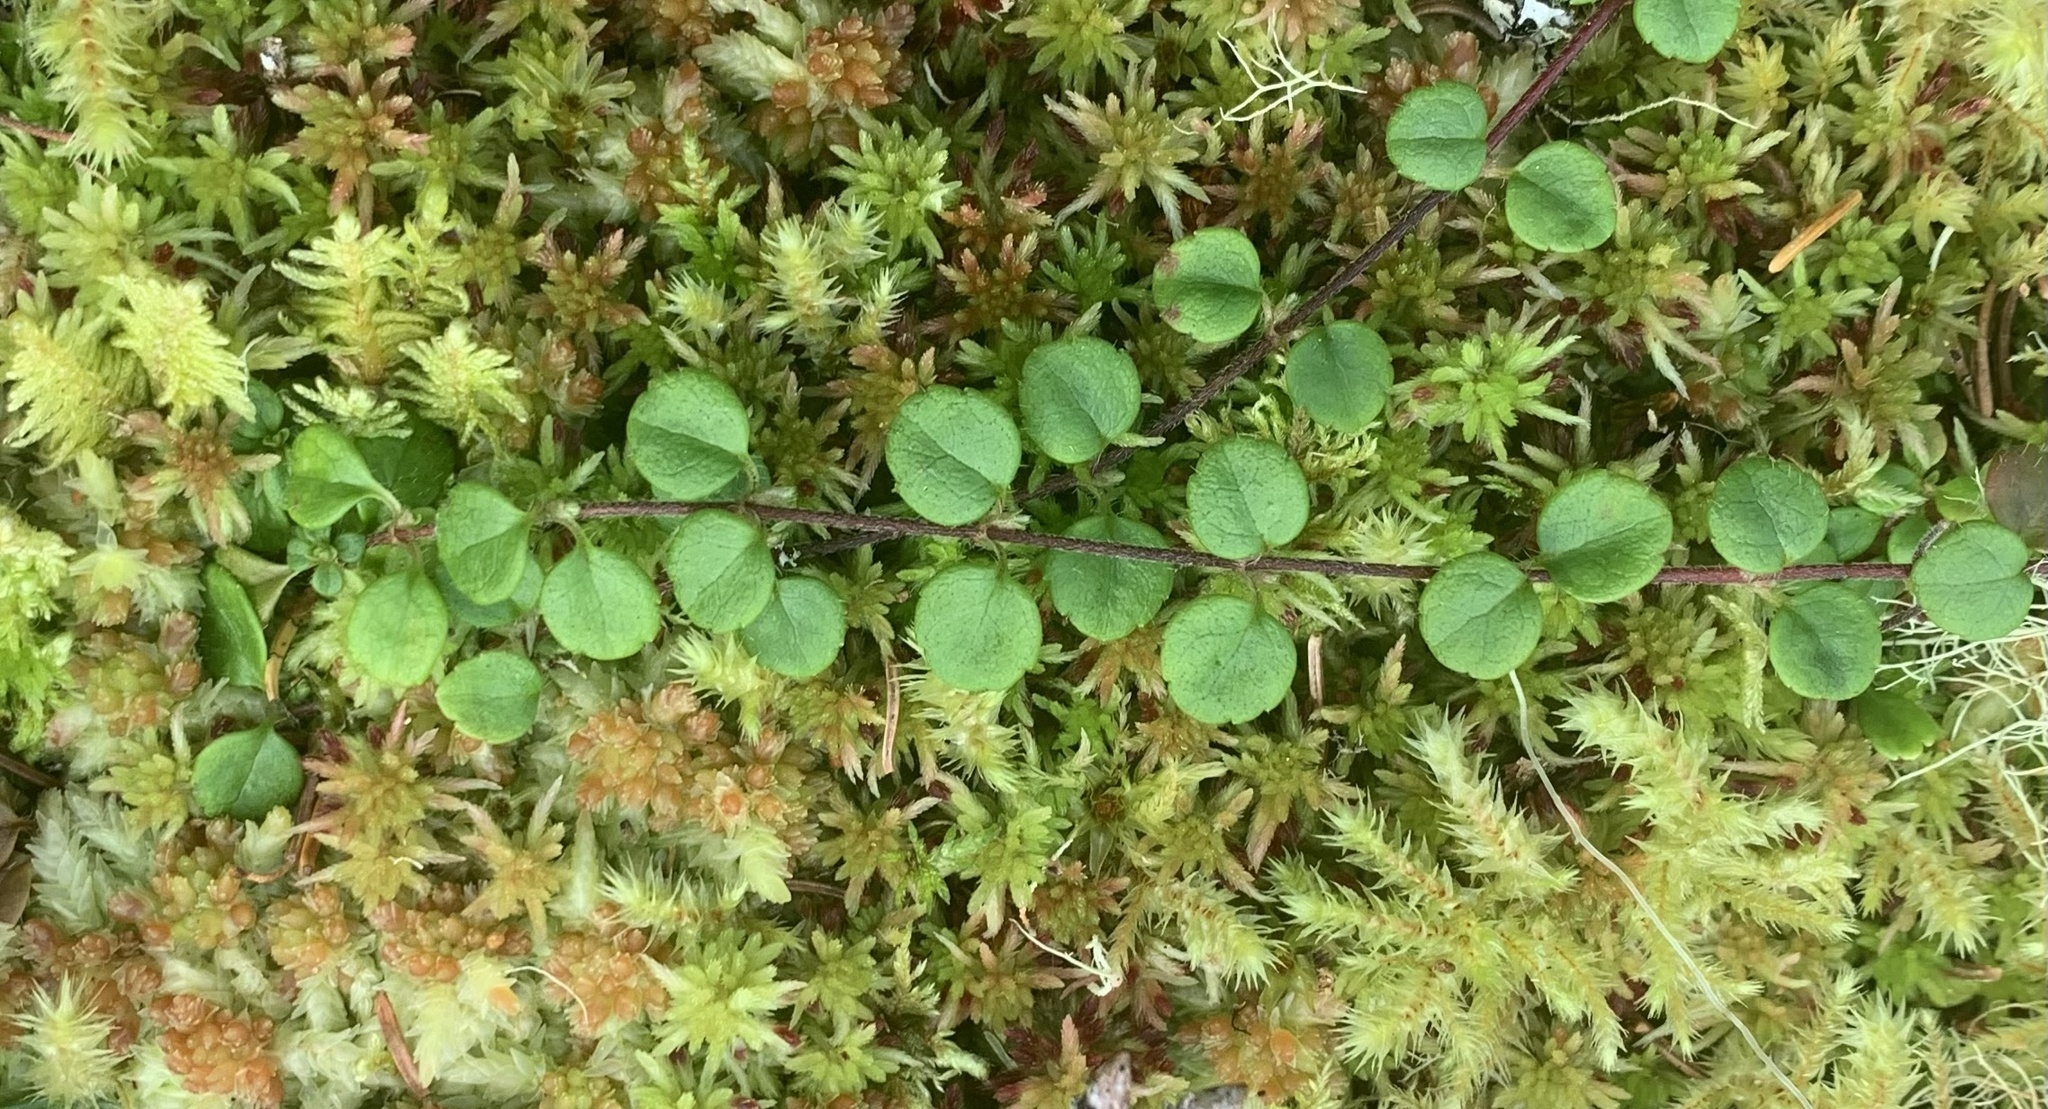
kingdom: Plantae
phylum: Tracheophyta
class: Magnoliopsida
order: Dipsacales
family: Caprifoliaceae
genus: Linnaea
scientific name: Linnaea borealis
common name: Twinflower
